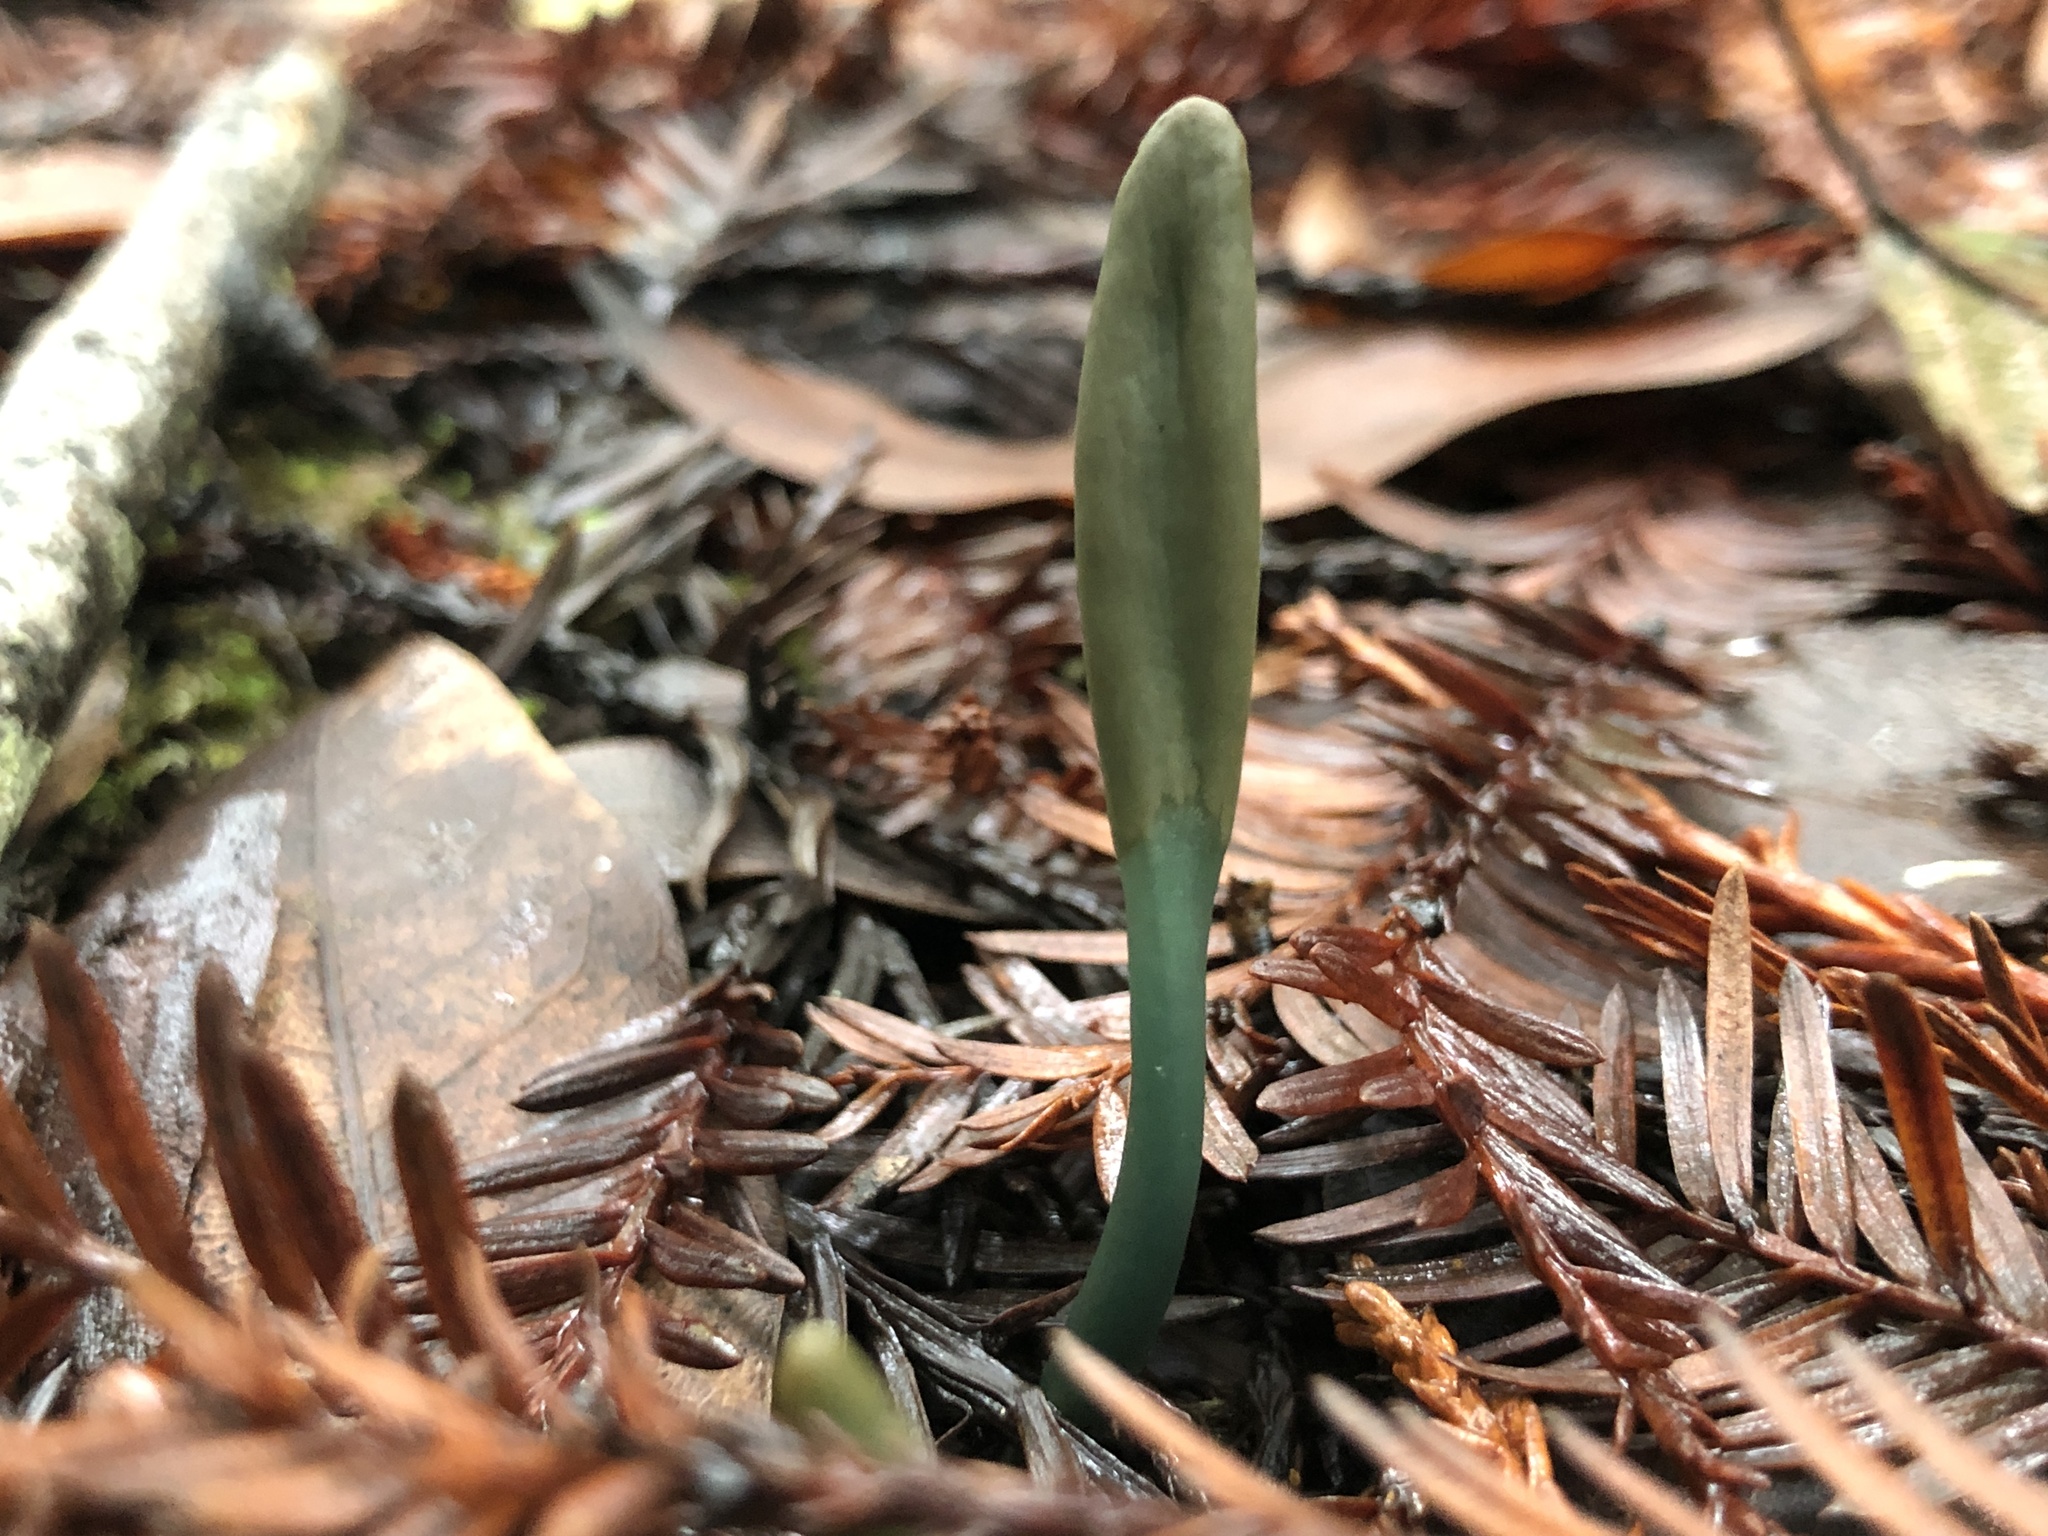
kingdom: Fungi
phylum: Ascomycota
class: Leotiomycetes
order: Leotiales
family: Leotiaceae
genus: Microglossum
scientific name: Microglossum
